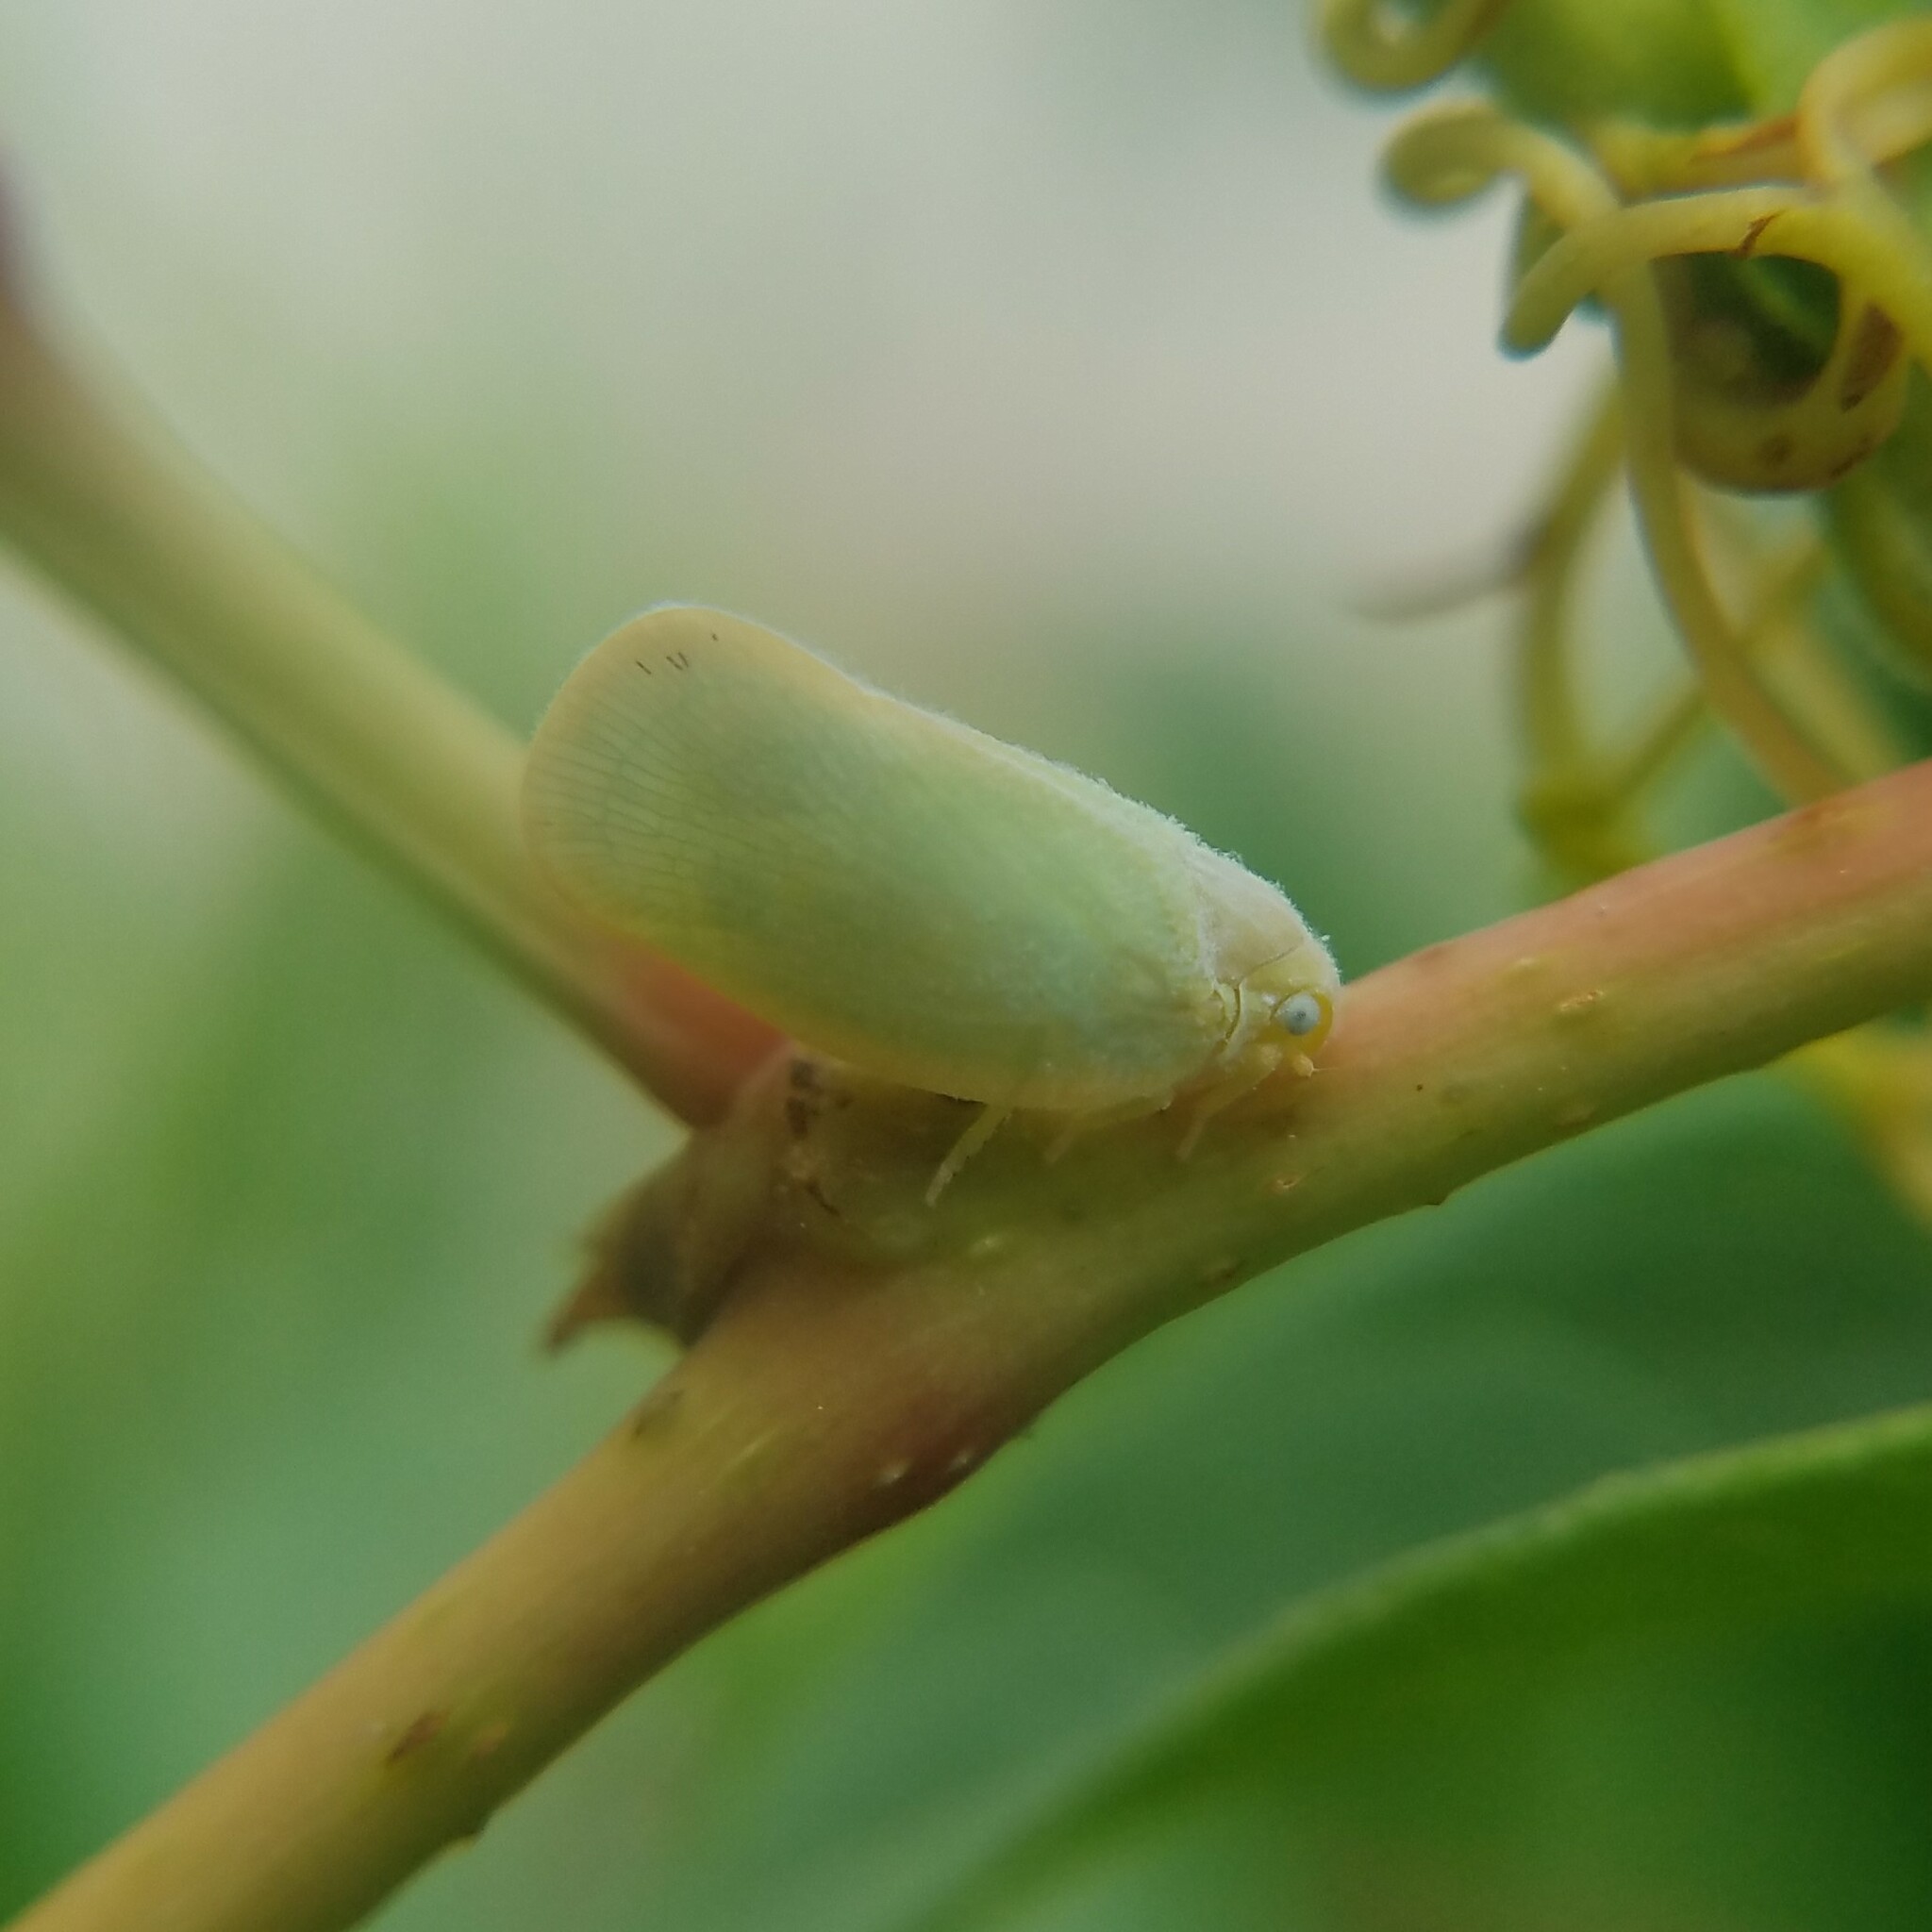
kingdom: Animalia
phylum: Arthropoda
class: Insecta
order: Hemiptera
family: Flatidae
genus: Ormenoides
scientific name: Ormenoides venusta
